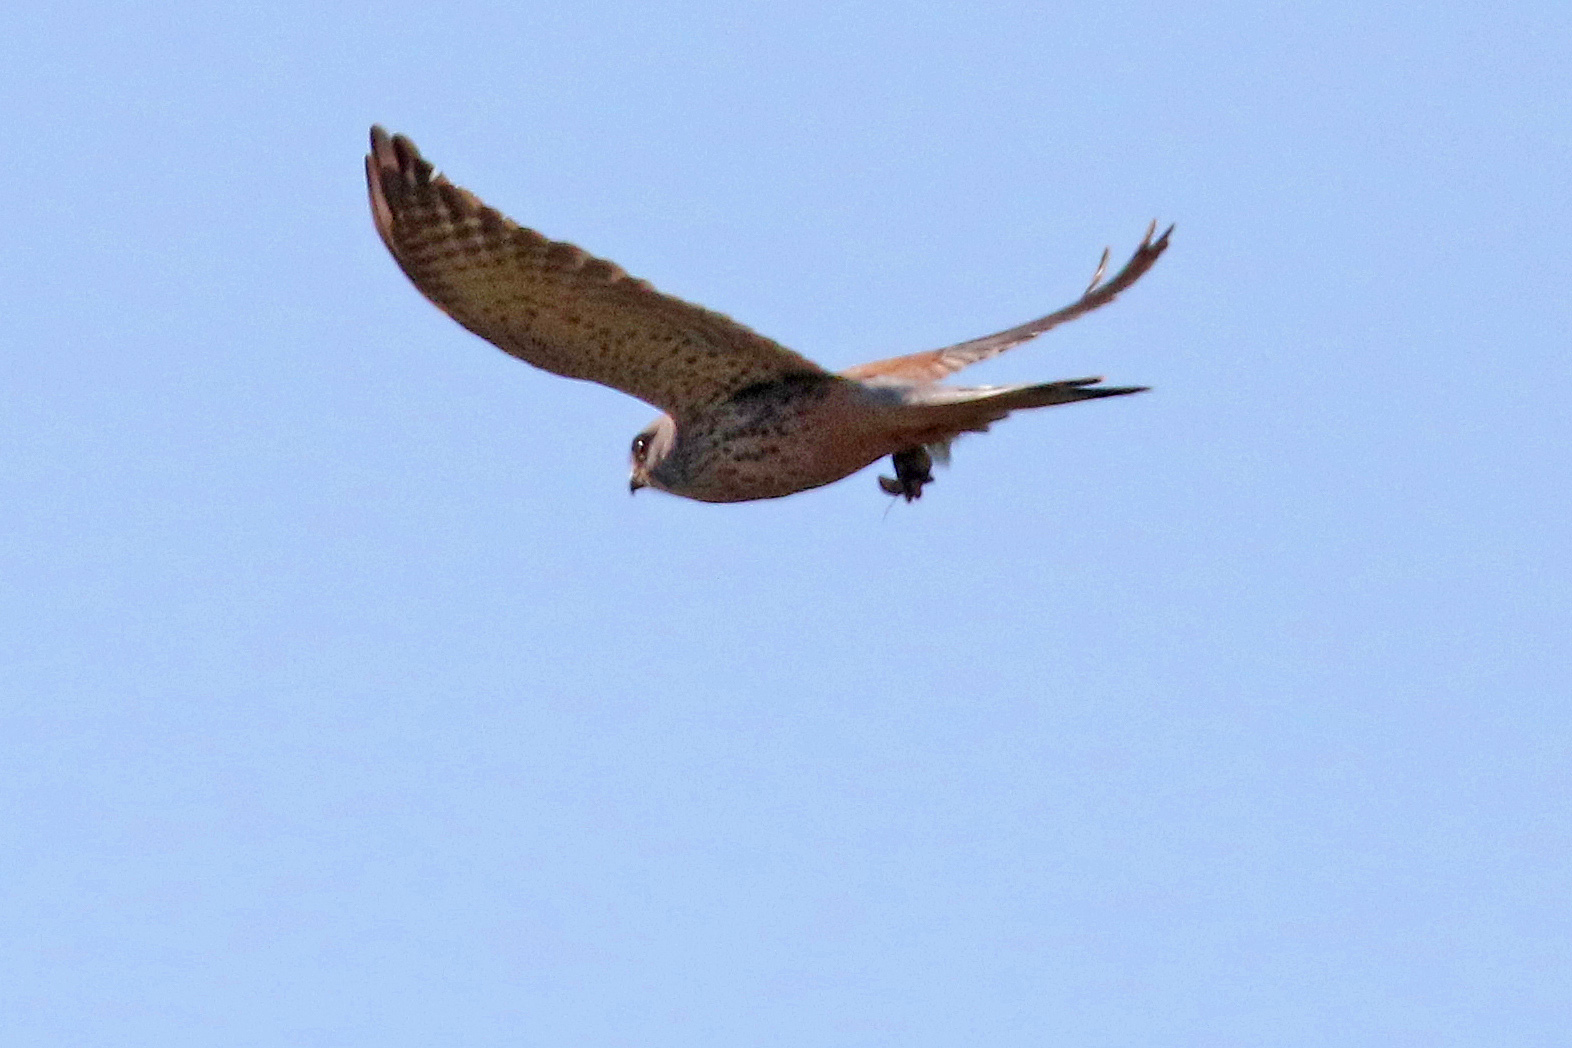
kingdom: Animalia
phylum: Chordata
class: Aves
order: Falconiformes
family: Falconidae
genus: Falco
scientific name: Falco tinnunculus
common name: Common kestrel
